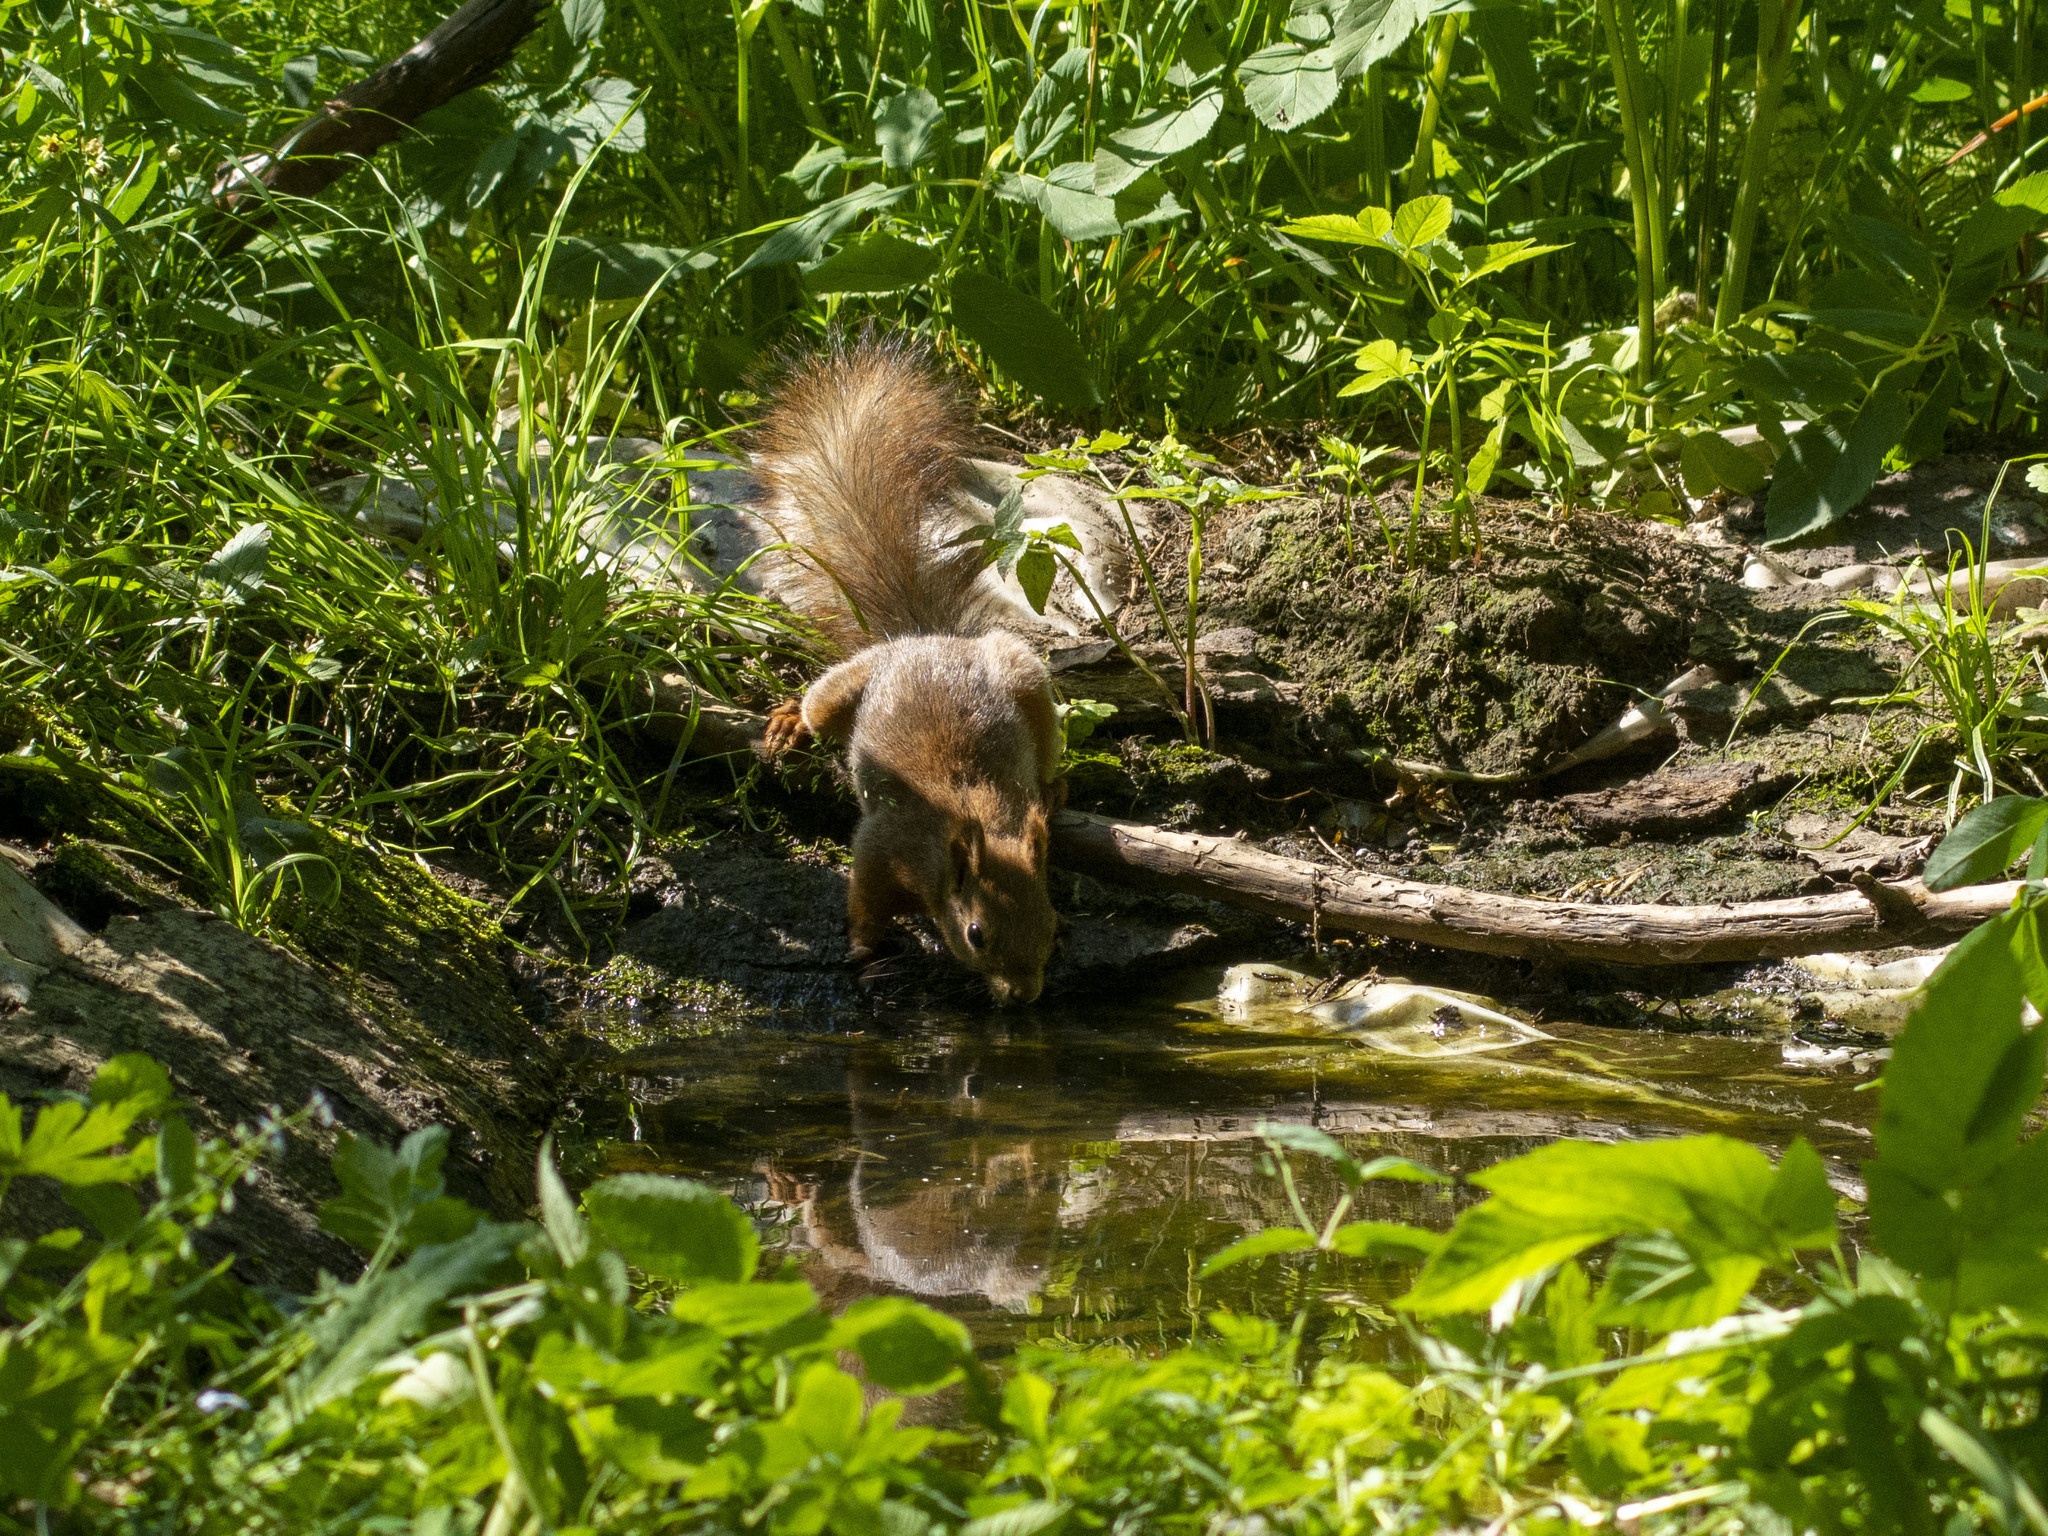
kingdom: Animalia
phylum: Chordata
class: Mammalia
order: Rodentia
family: Sciuridae
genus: Sciurus
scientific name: Sciurus vulgaris
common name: Eurasian red squirrel
